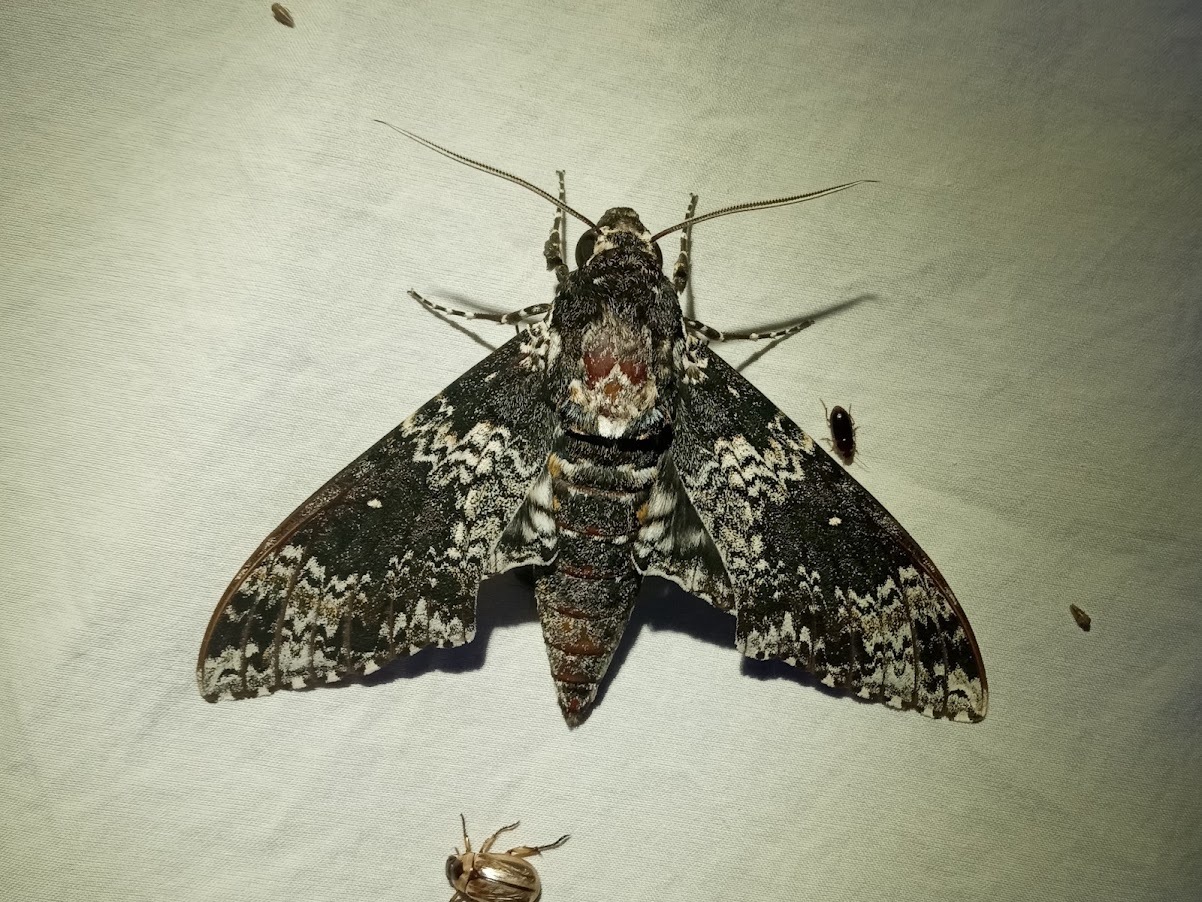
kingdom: Animalia
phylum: Arthropoda
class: Insecta
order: Lepidoptera
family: Sphingidae
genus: Manduca
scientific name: Manduca rustica
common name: Rustic sphinx
